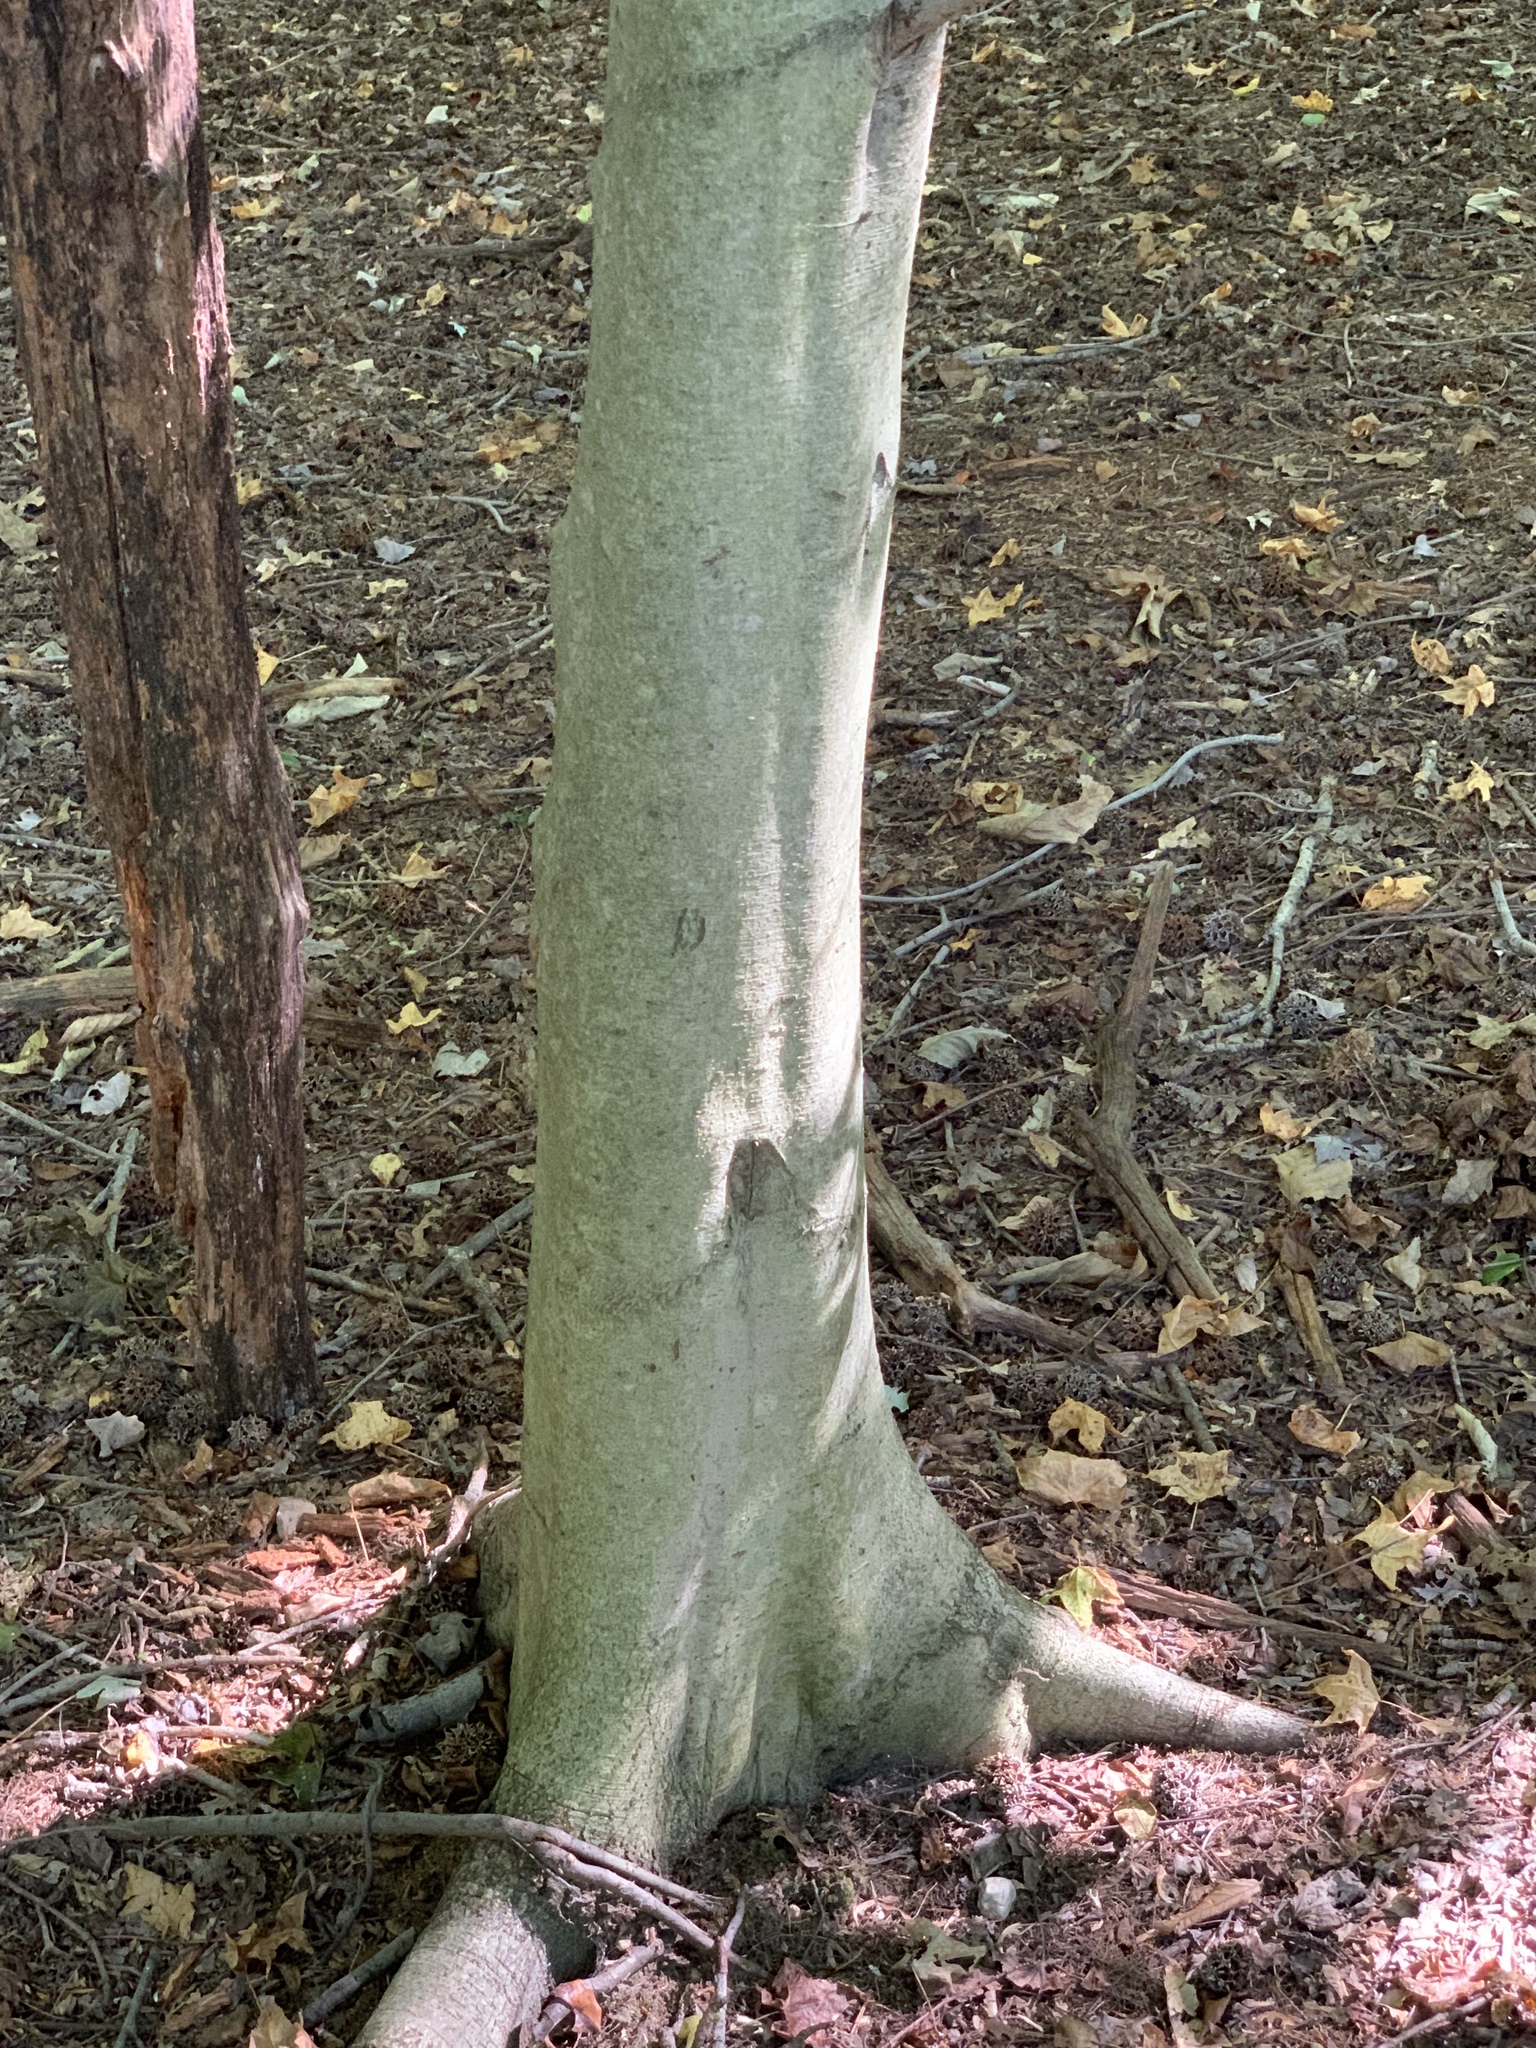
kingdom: Plantae
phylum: Tracheophyta
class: Magnoliopsida
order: Fagales
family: Fagaceae
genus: Fagus
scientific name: Fagus grandifolia
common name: American beech
